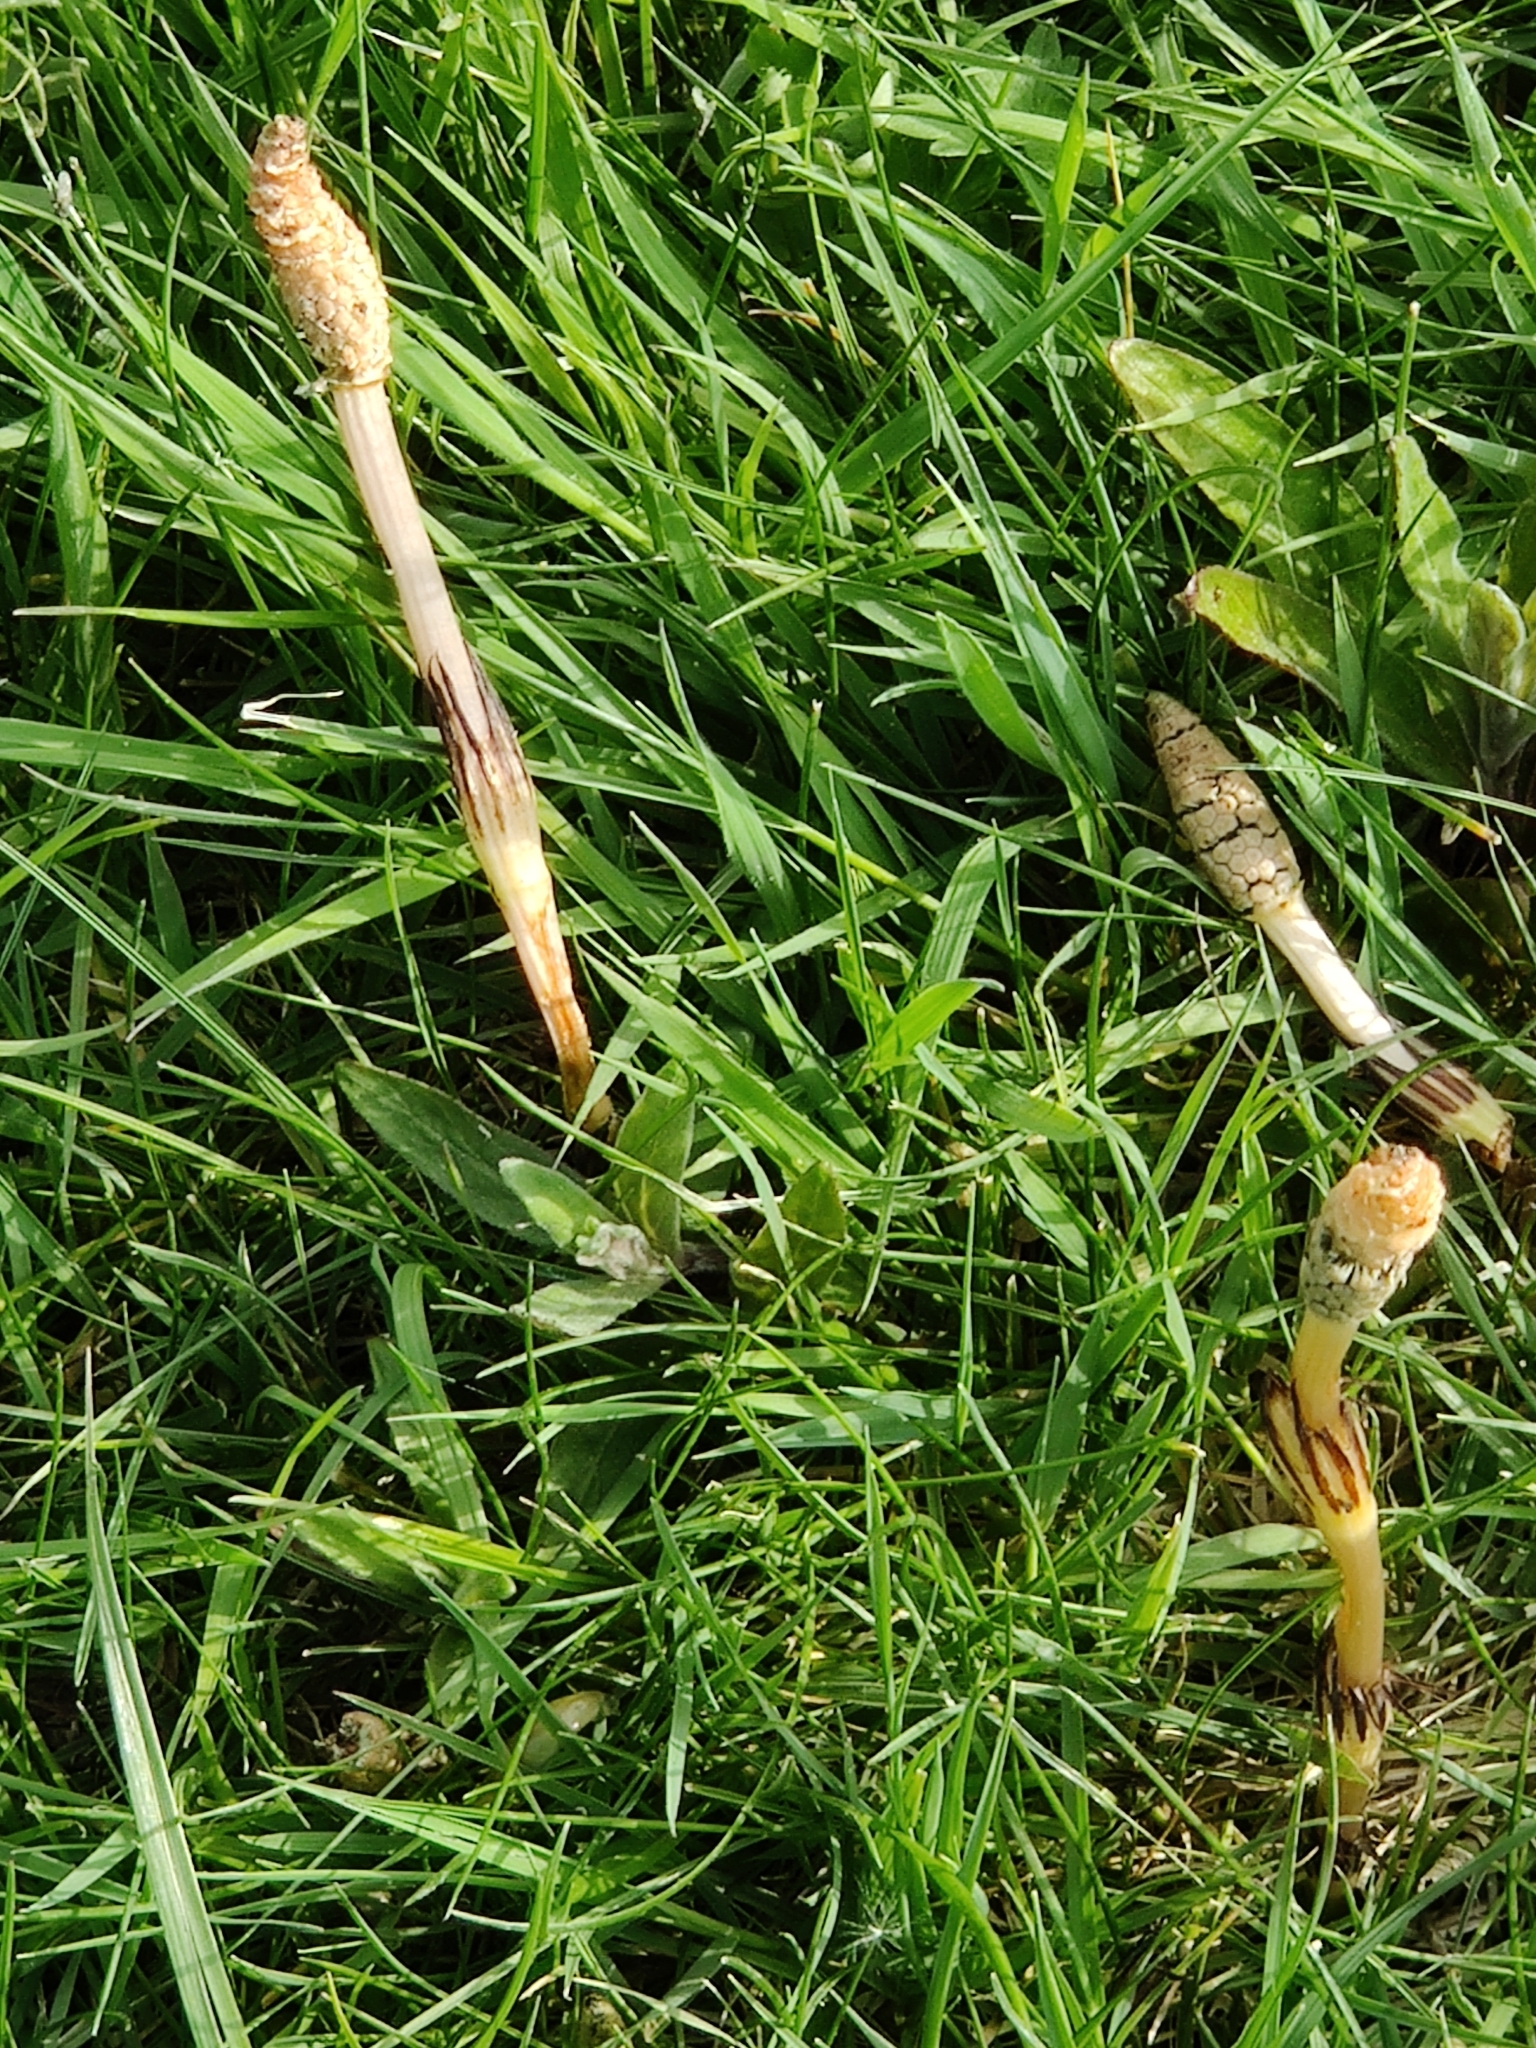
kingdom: Plantae
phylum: Tracheophyta
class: Polypodiopsida
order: Equisetales
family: Equisetaceae
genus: Equisetum
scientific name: Equisetum arvense
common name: Field horsetail
